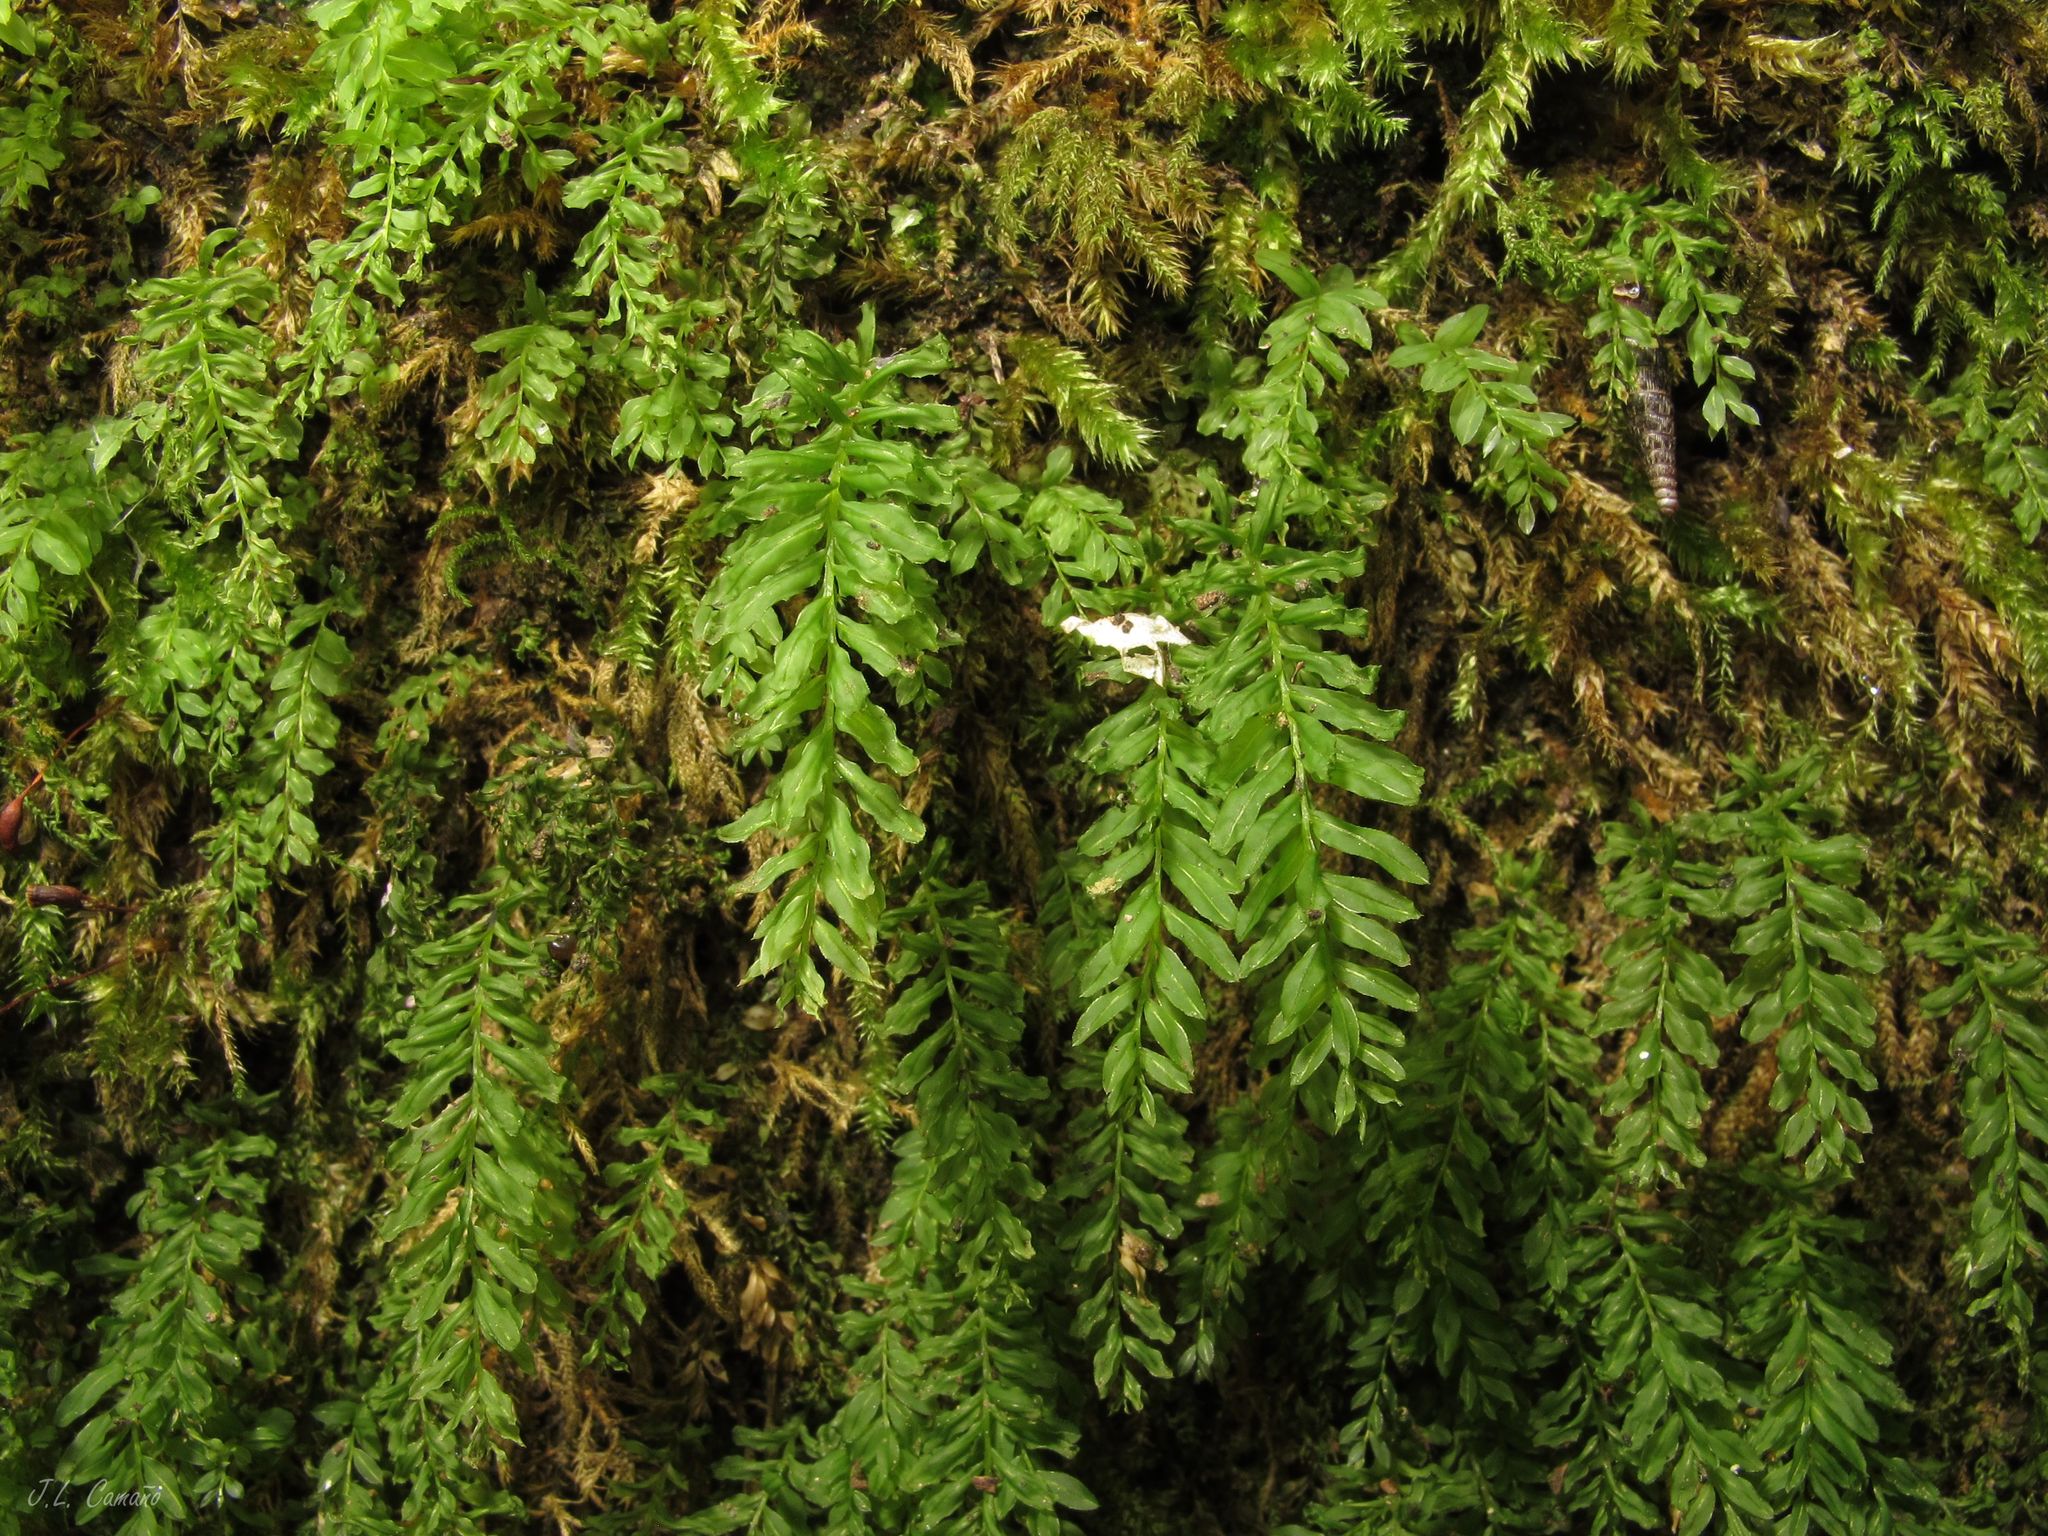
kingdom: Plantae
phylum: Bryophyta
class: Bryopsida
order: Bryales
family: Mniaceae
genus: Plagiomnium
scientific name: Plagiomnium undulatum
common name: Hart's-tongue thyme-moss
